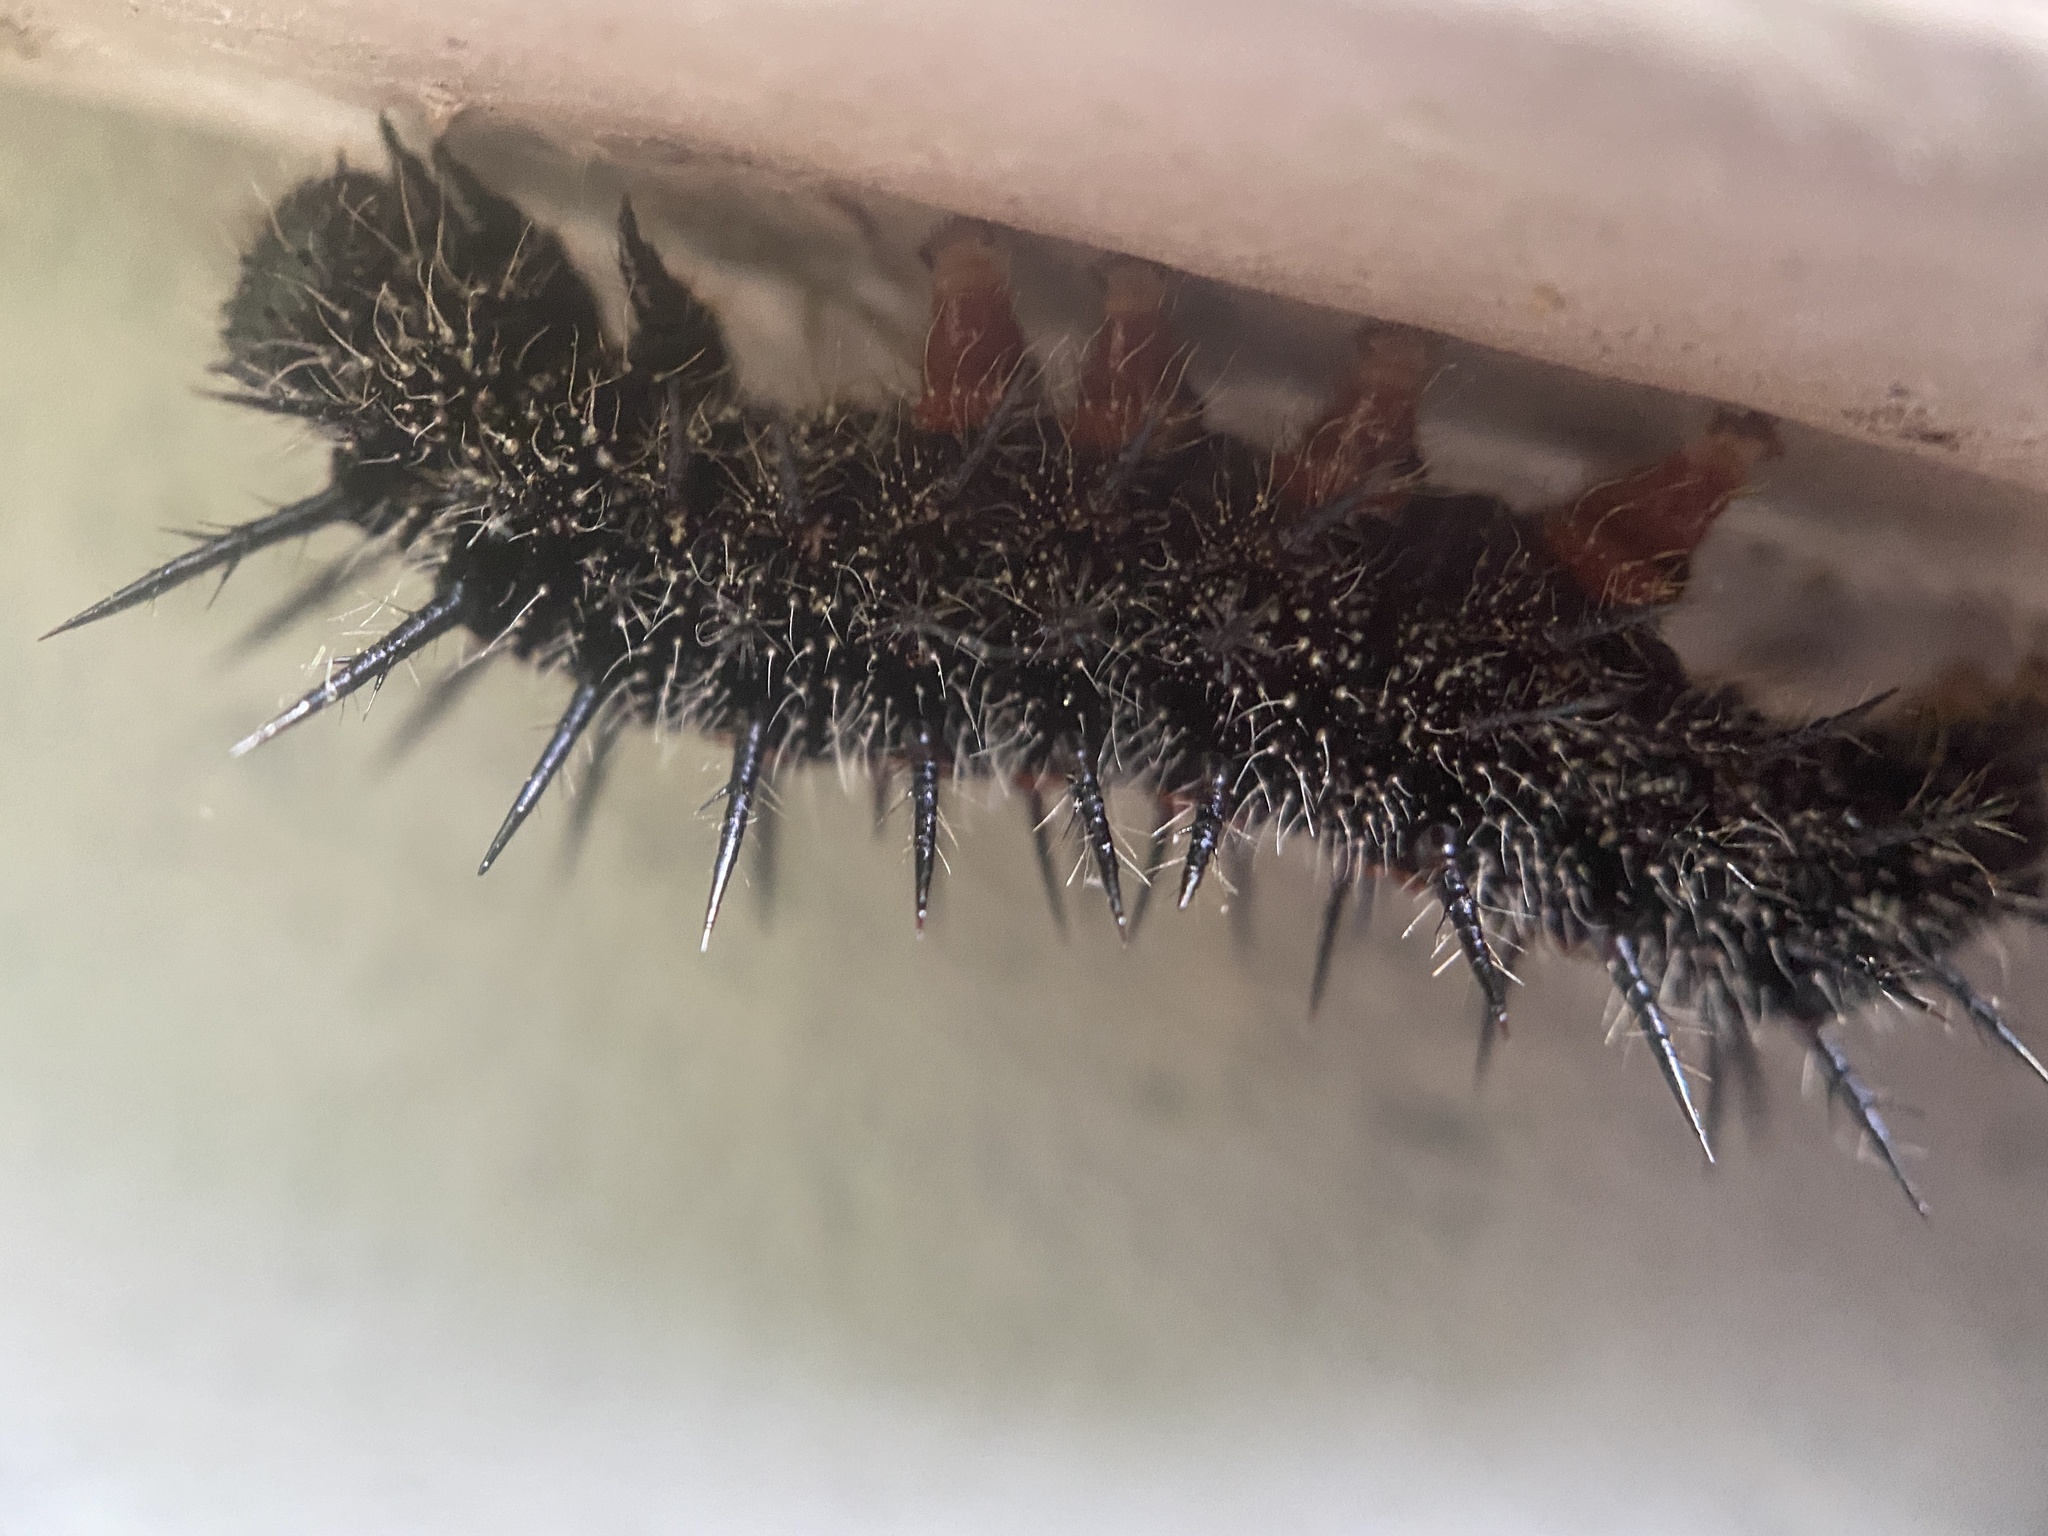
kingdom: Animalia
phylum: Arthropoda
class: Insecta
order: Lepidoptera
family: Nymphalidae
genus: Nymphalis
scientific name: Nymphalis antiopa
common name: Camberwell beauty
